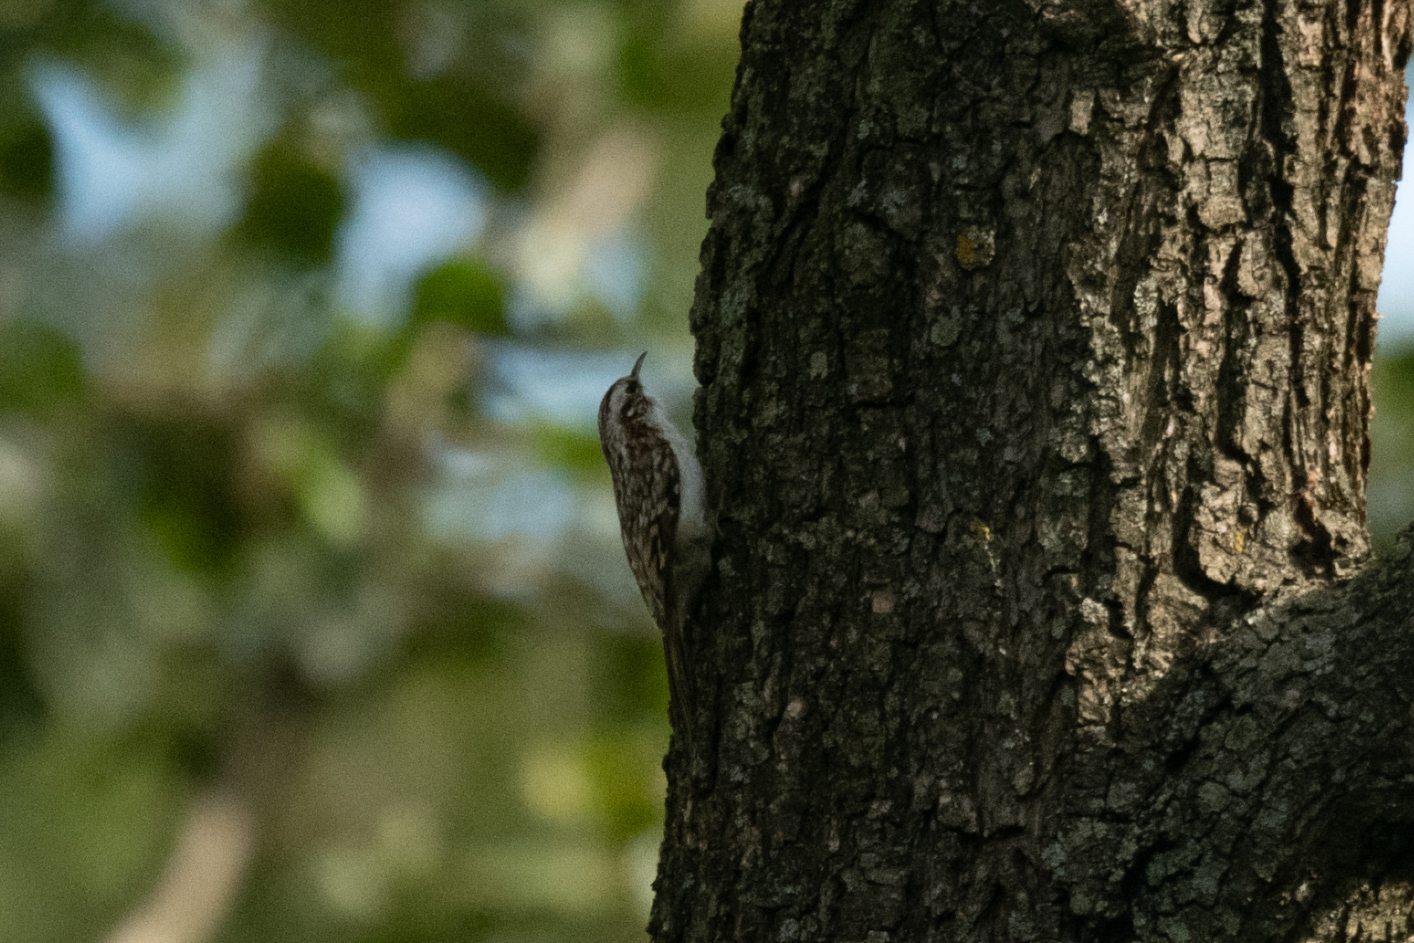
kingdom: Animalia
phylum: Chordata
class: Aves
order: Passeriformes
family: Certhiidae
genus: Certhia
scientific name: Certhia familiaris
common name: Eurasian treecreeper
